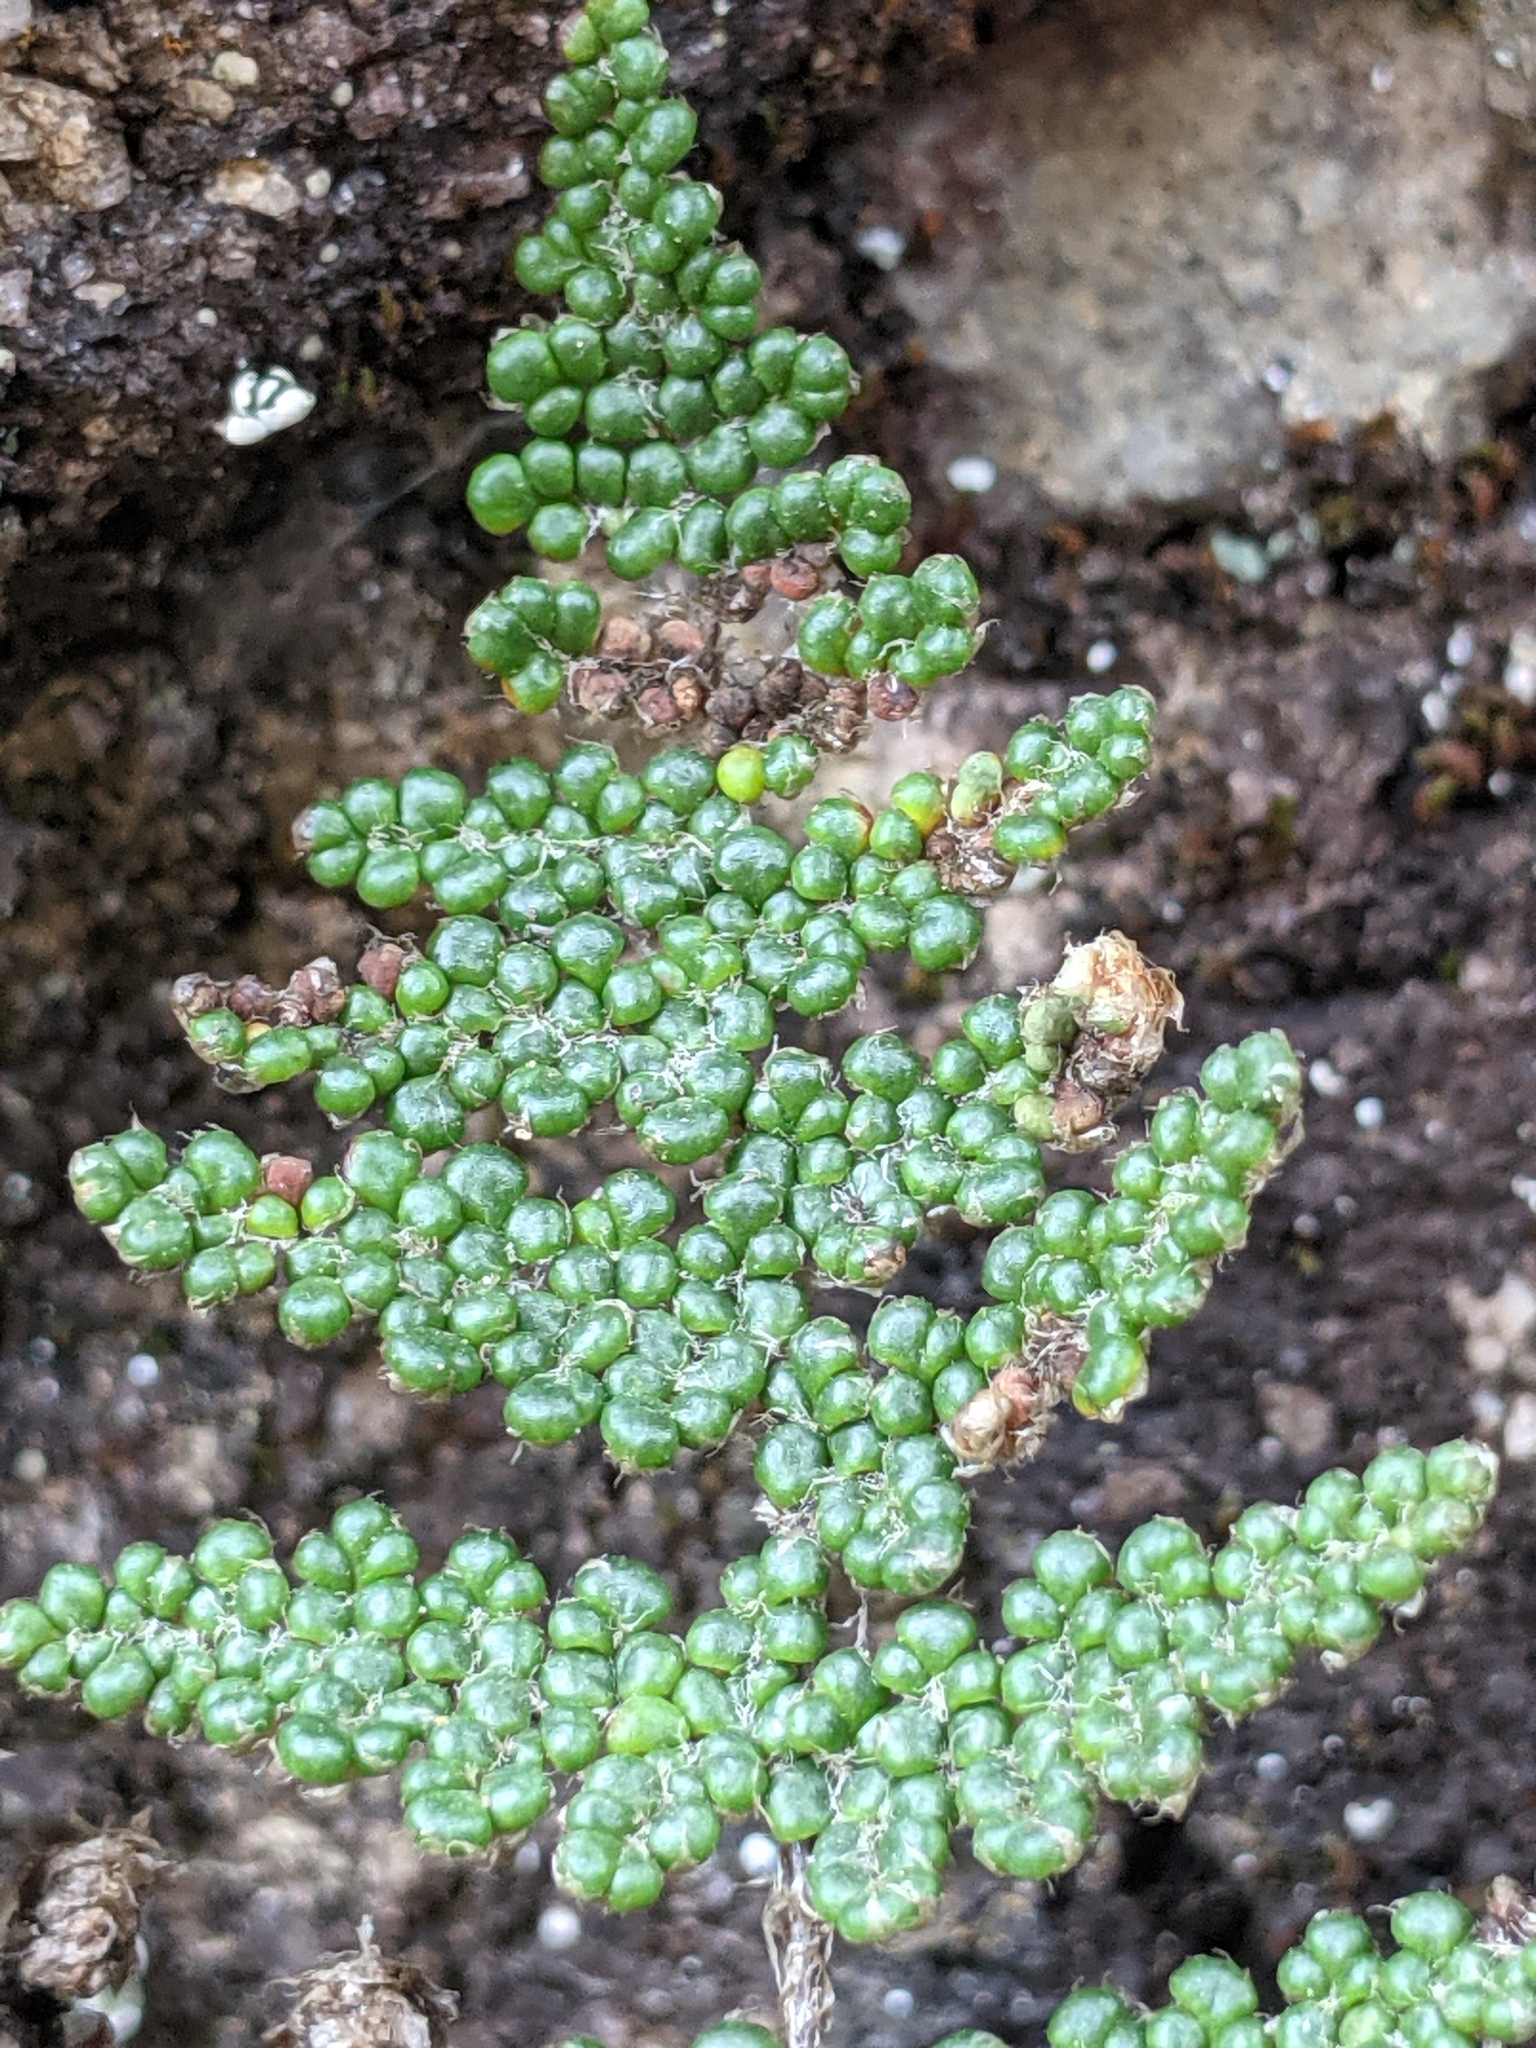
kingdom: Plantae
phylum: Tracheophyta
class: Polypodiopsida
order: Polypodiales
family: Pteridaceae
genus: Myriopteris
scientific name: Myriopteris covillei
